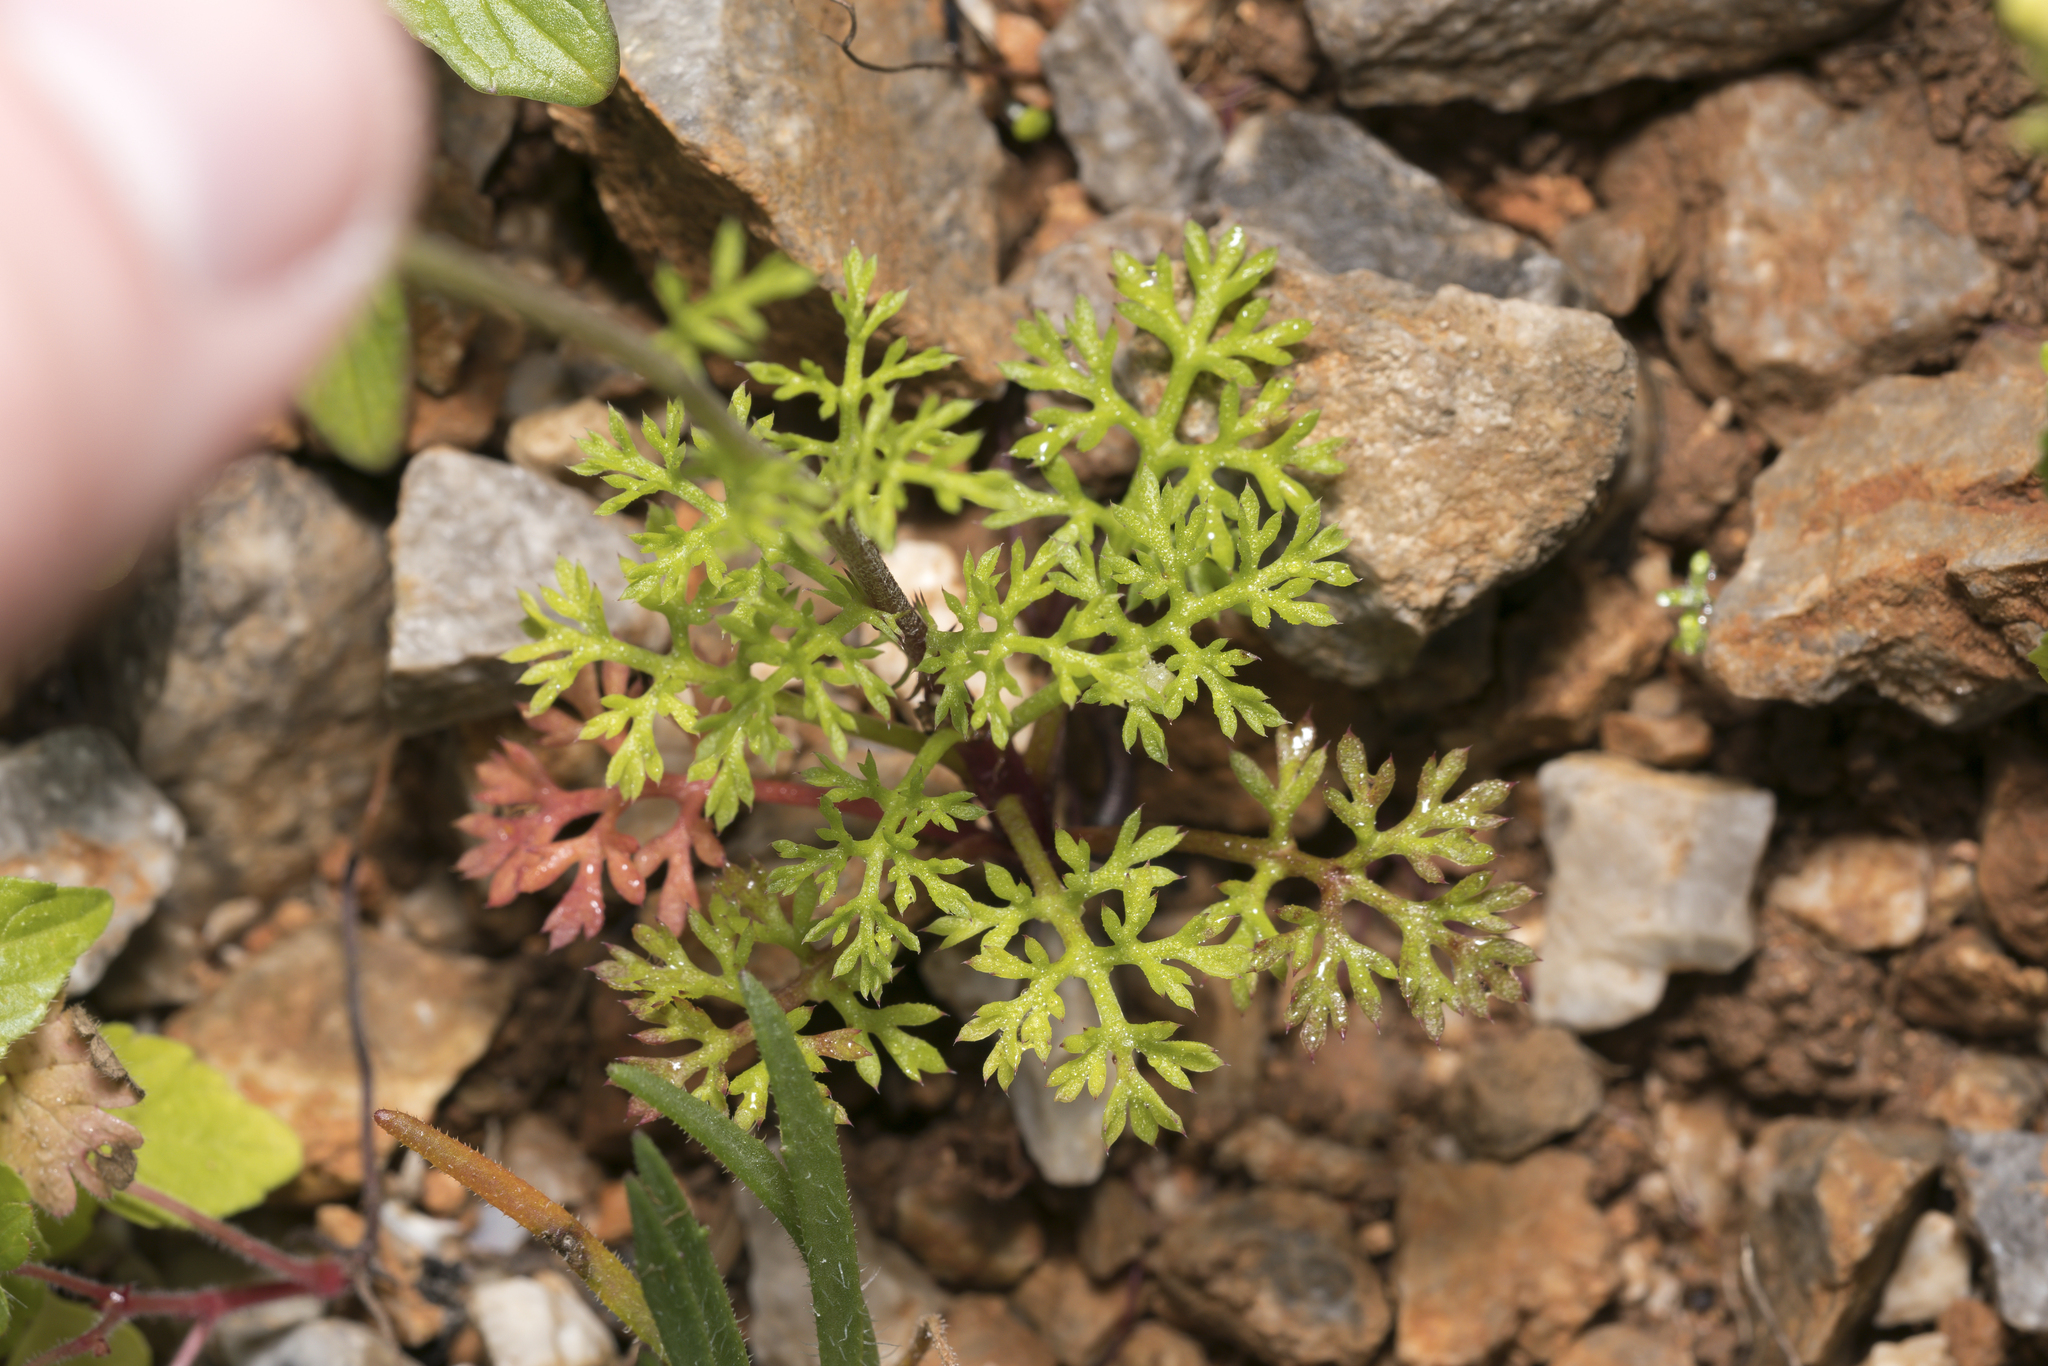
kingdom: Plantae
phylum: Tracheophyta
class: Magnoliopsida
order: Asterales
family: Asteraceae
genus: Anthemis
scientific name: Anthemis chia
